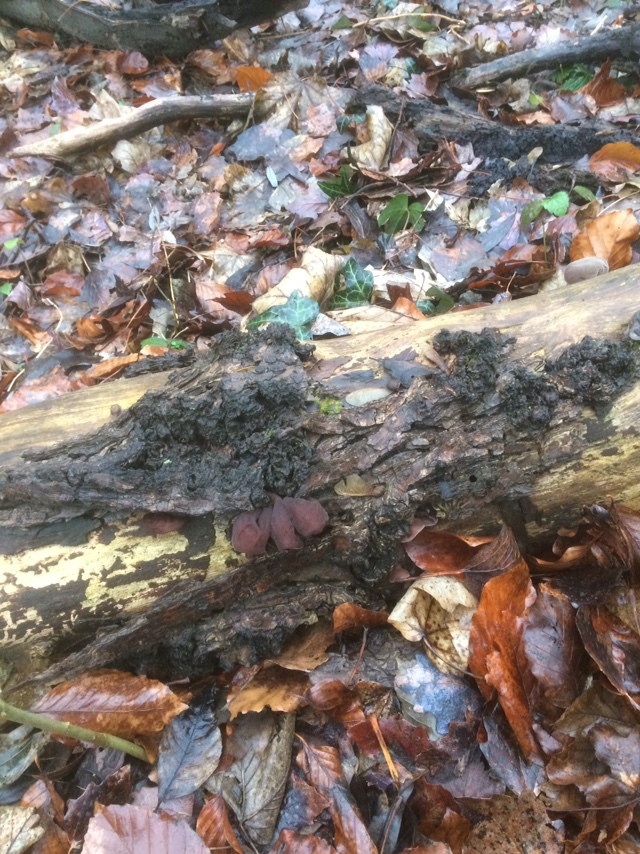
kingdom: Fungi
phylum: Basidiomycota
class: Agaricomycetes
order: Auriculariales
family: Auriculariaceae
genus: Auricularia
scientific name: Auricularia auricula-judae
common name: Jelly ear
